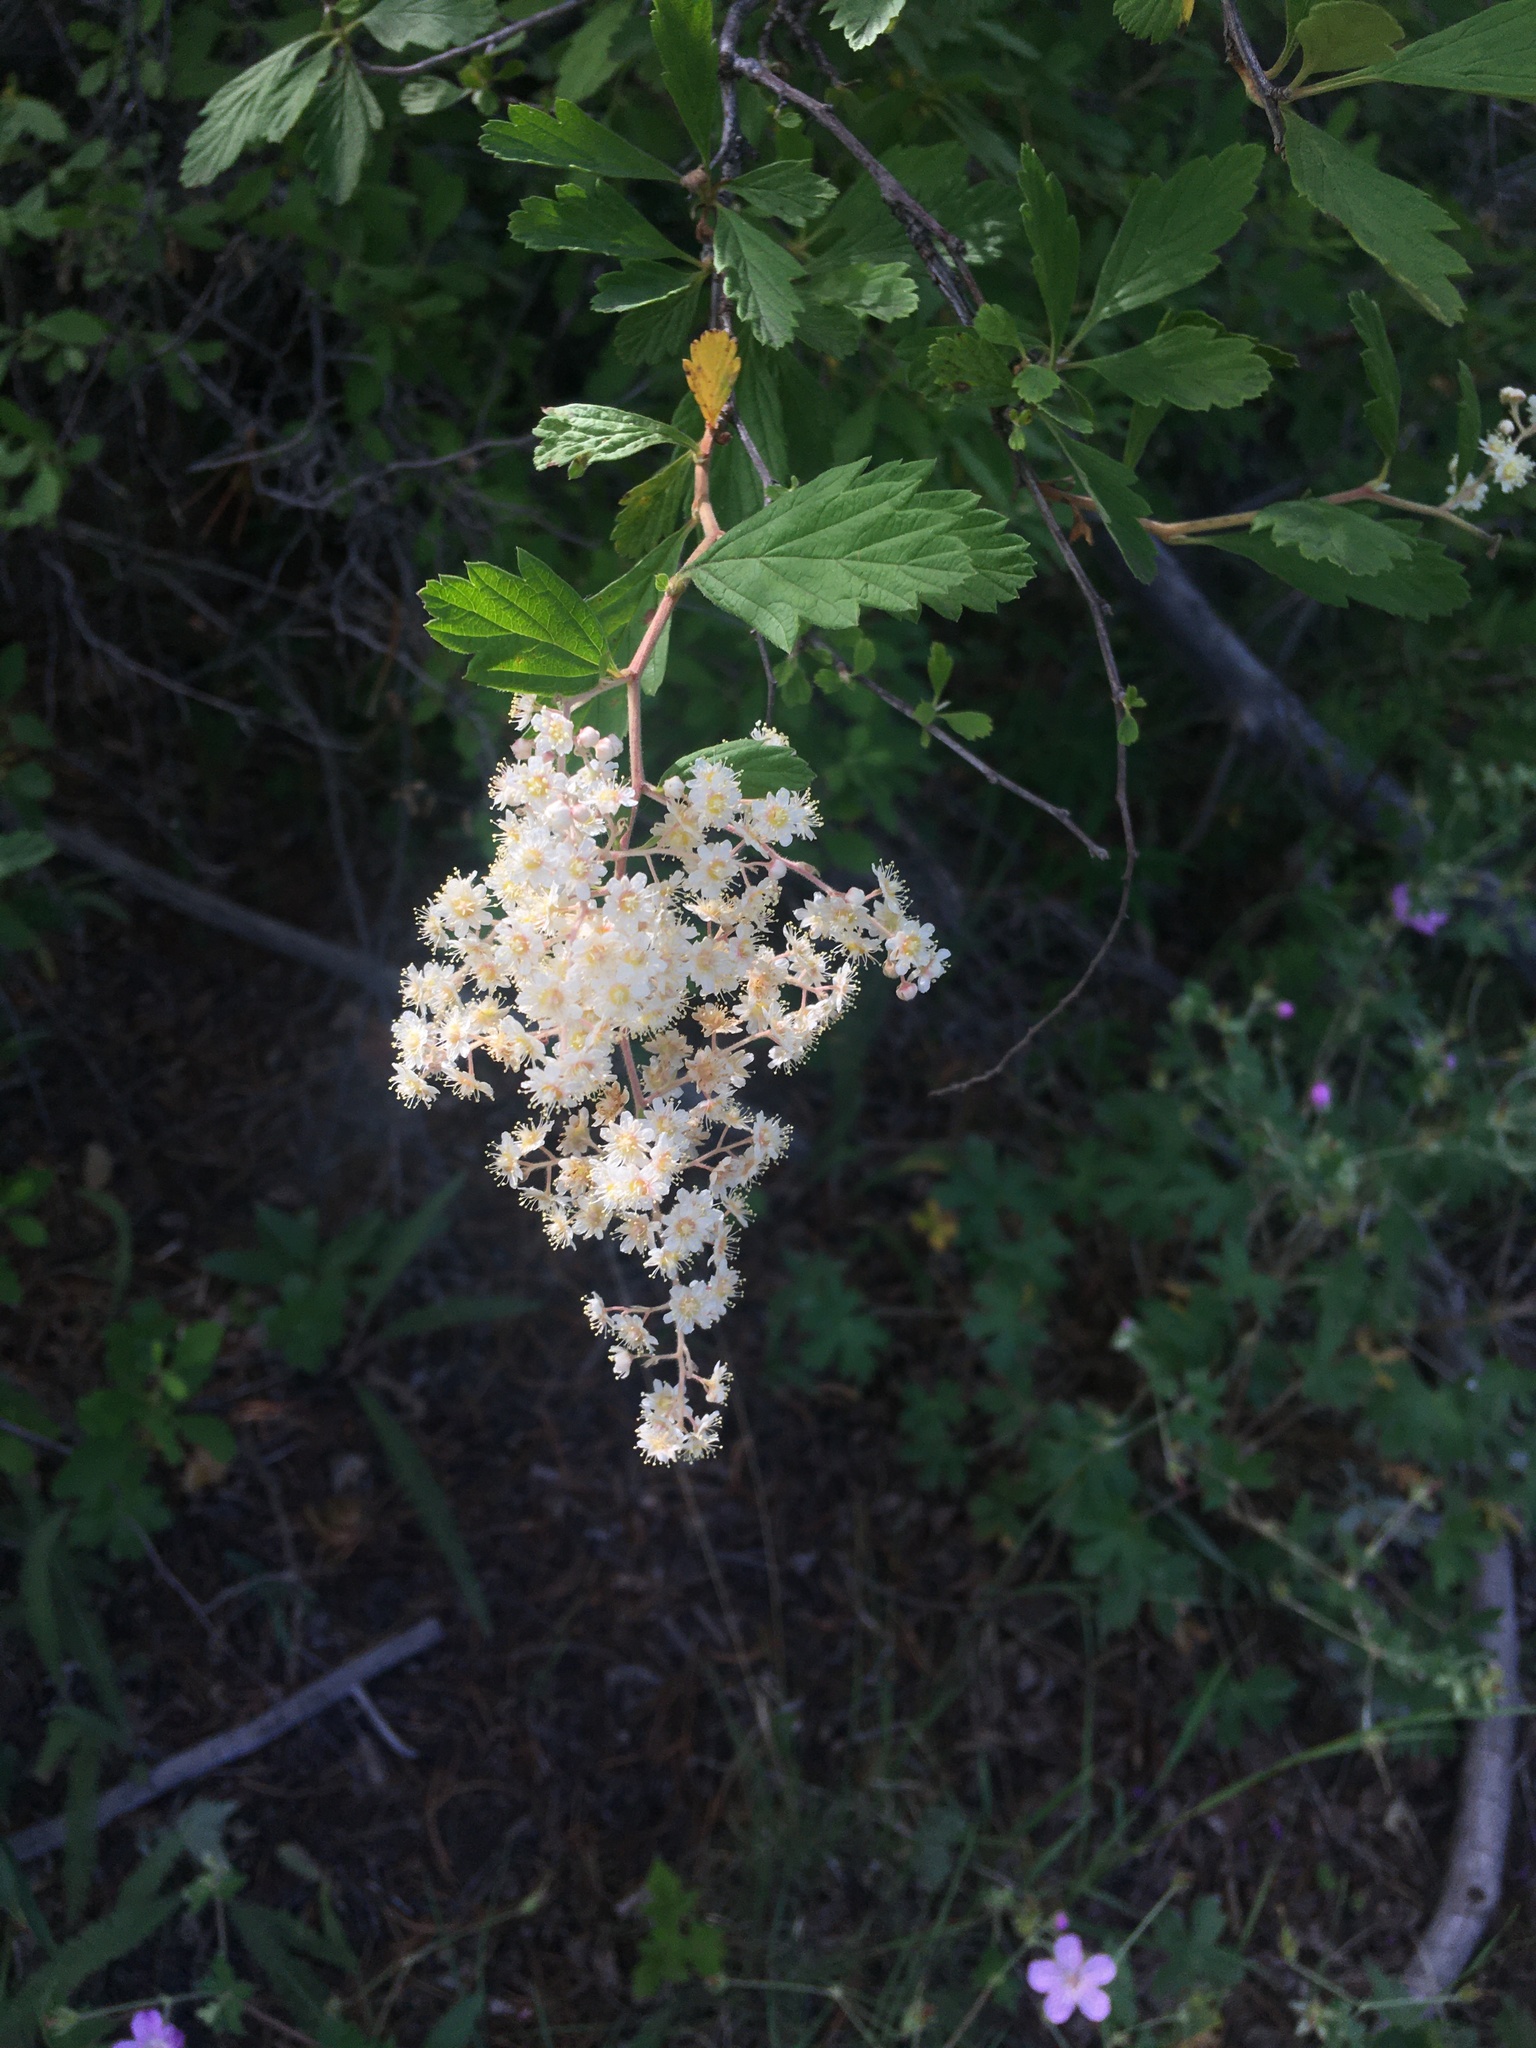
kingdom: Plantae
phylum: Tracheophyta
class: Magnoliopsida
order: Rosales
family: Rosaceae
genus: Holodiscus
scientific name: Holodiscus discolor
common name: Oceanspray
